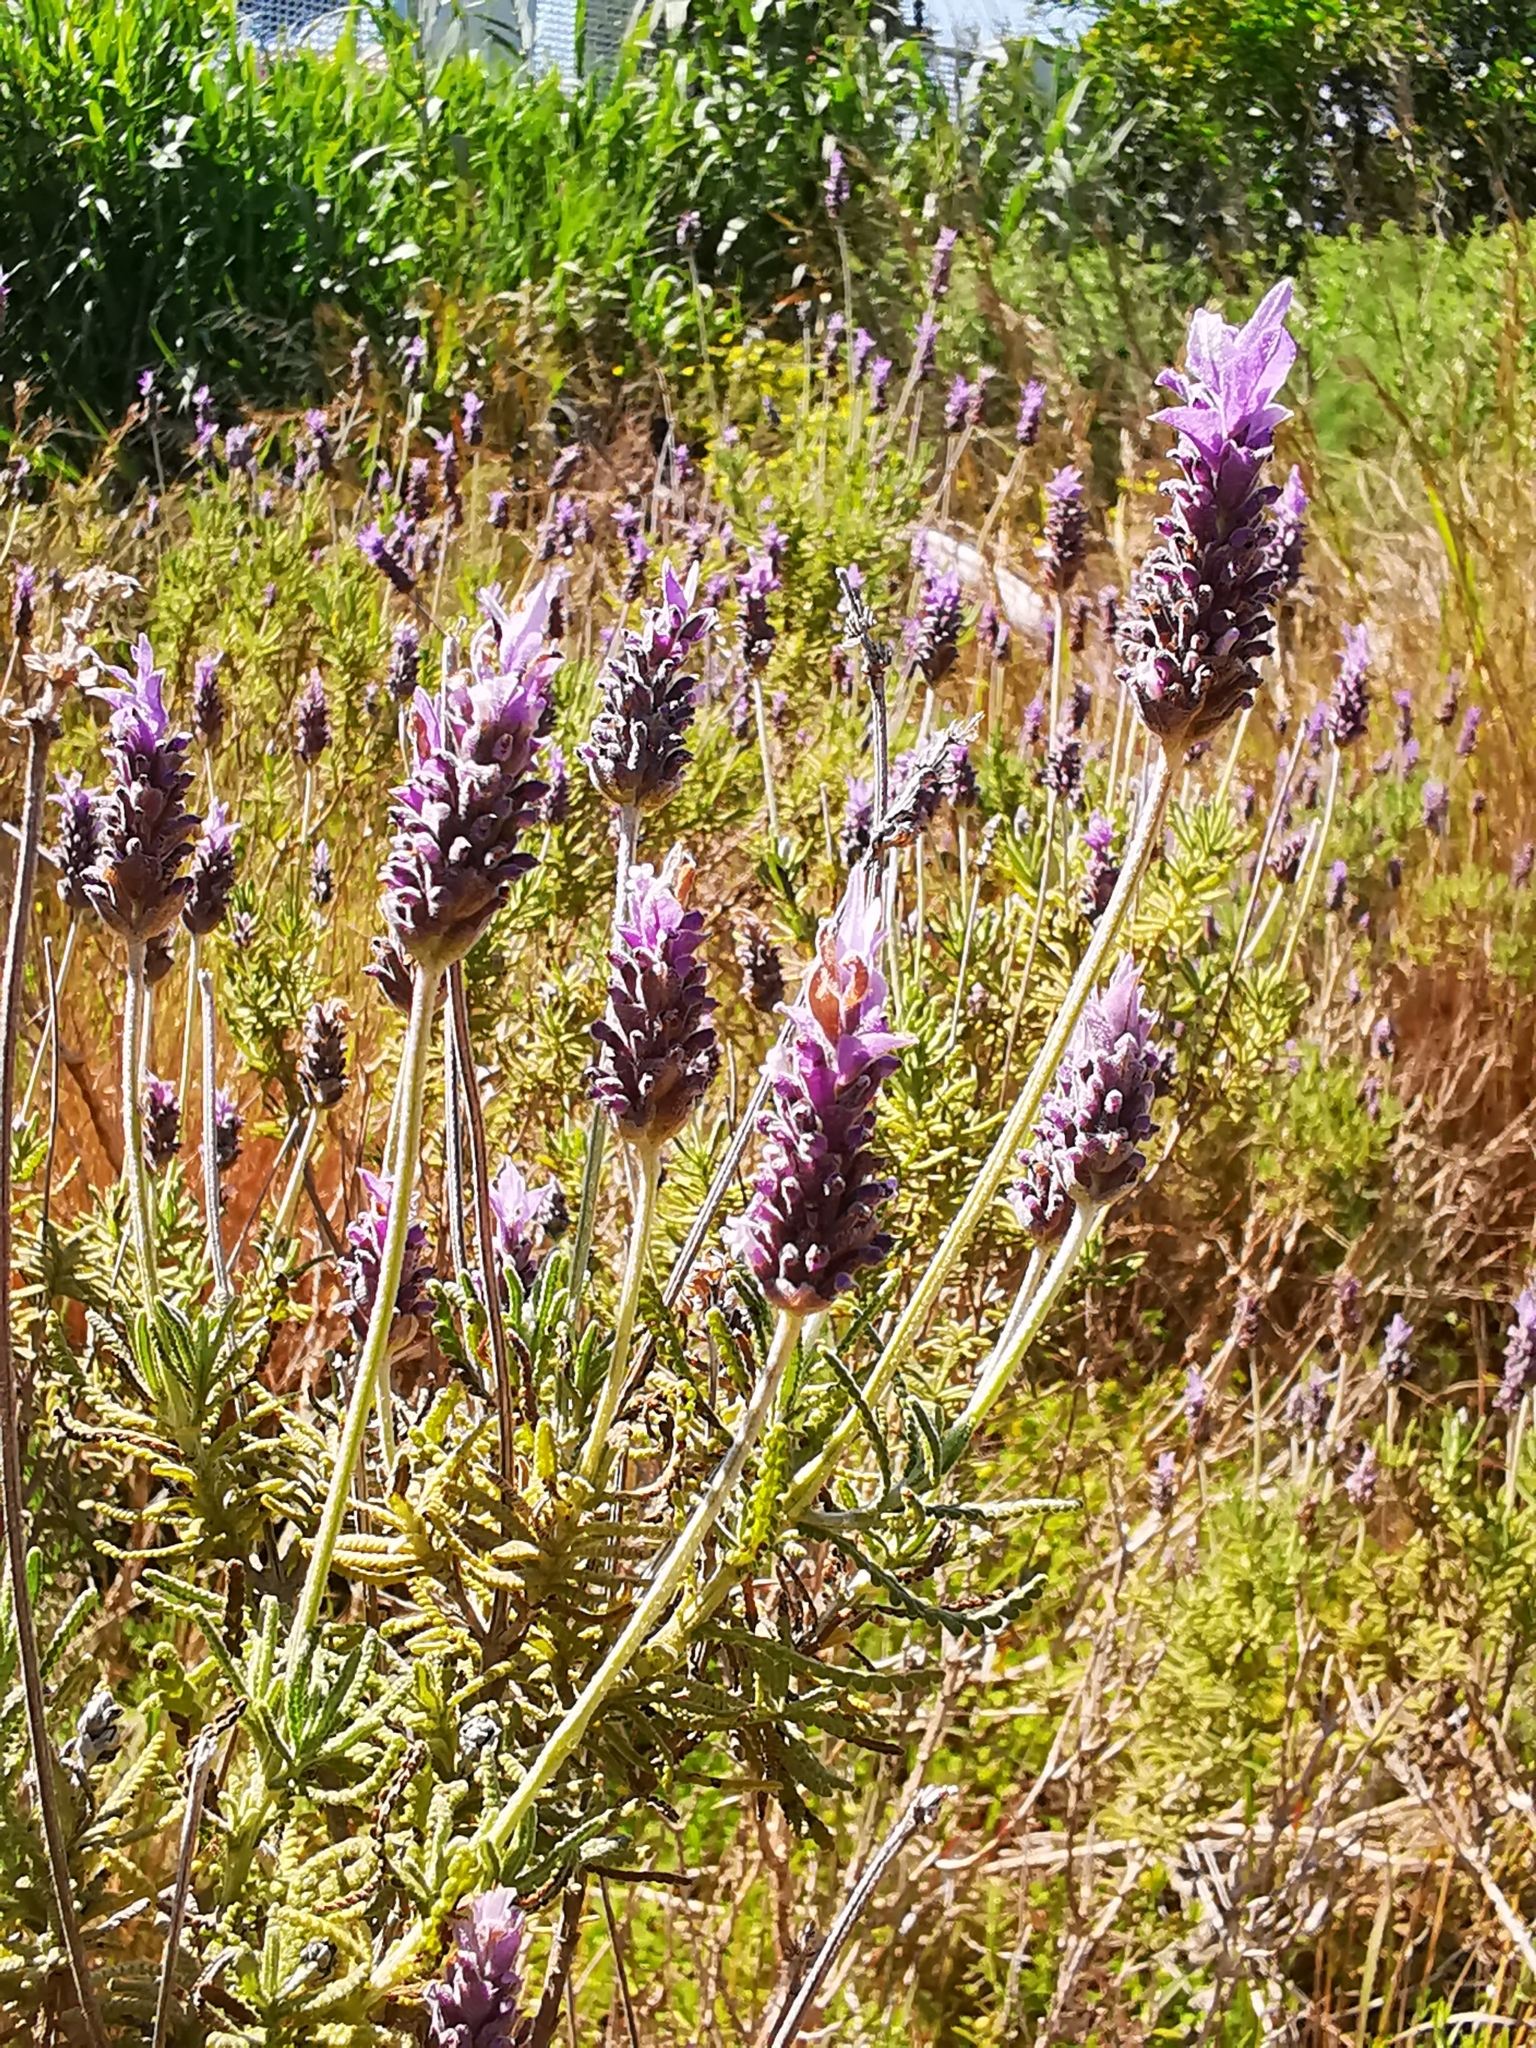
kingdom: Plantae
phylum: Tracheophyta
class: Magnoliopsida
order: Lamiales
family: Lamiaceae
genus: Lavandula
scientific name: Lavandula dentata
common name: French lavender
